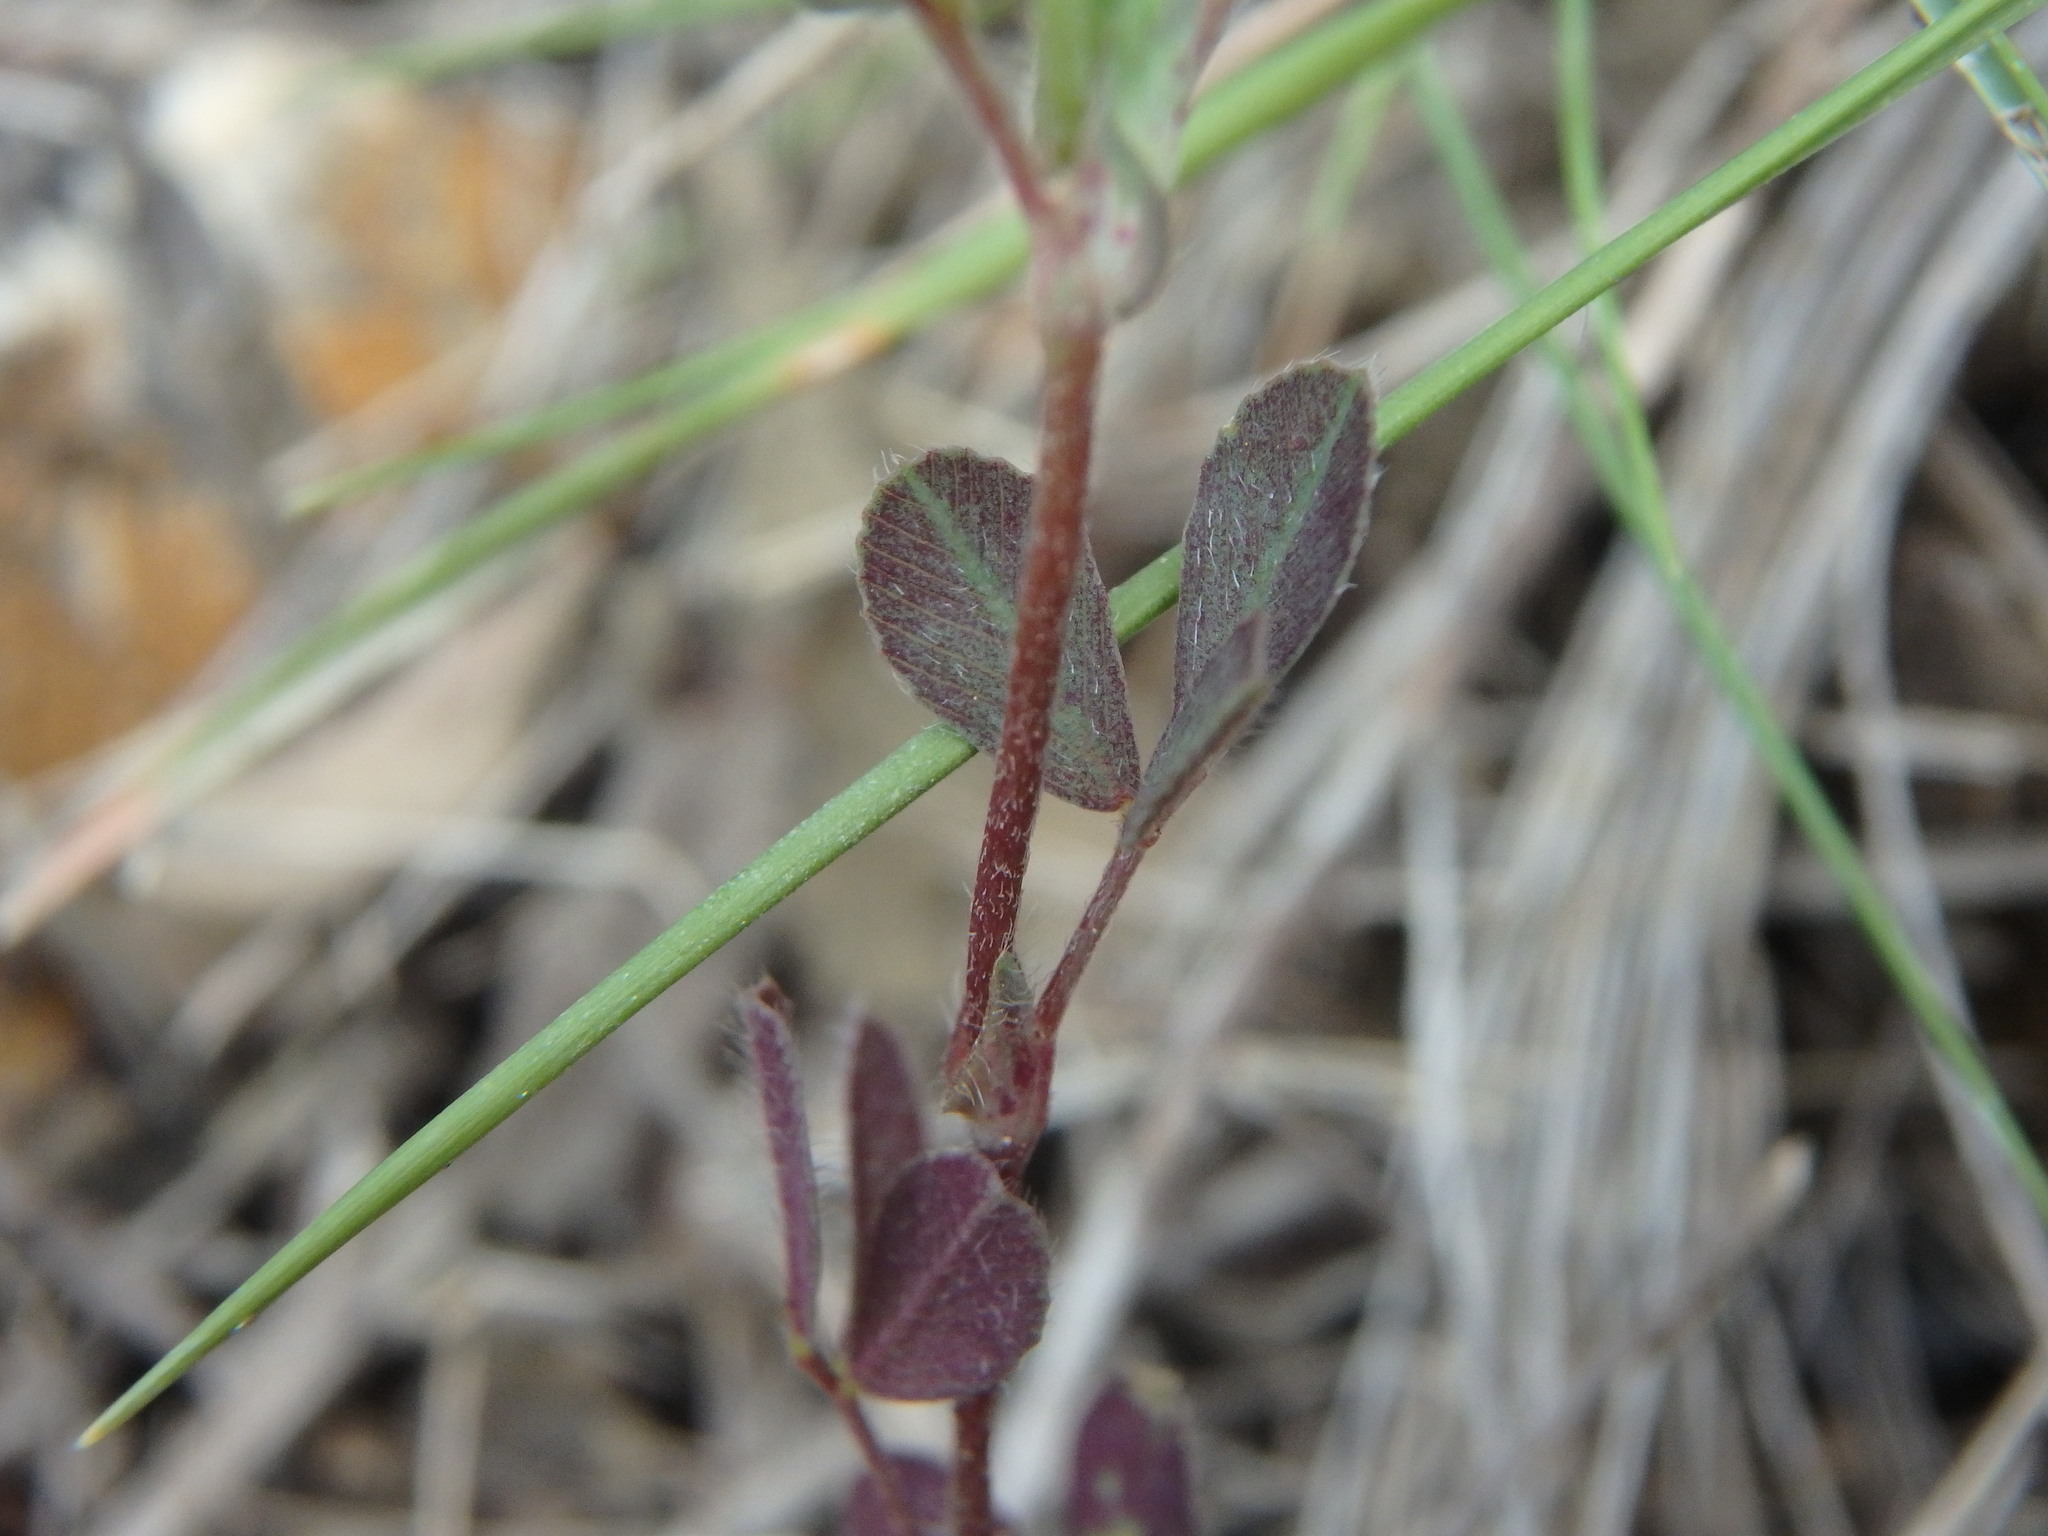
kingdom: Plantae
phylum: Tracheophyta
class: Magnoliopsida
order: Fabales
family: Fabaceae
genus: Trifolium
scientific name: Trifolium campestre
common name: Field clover
